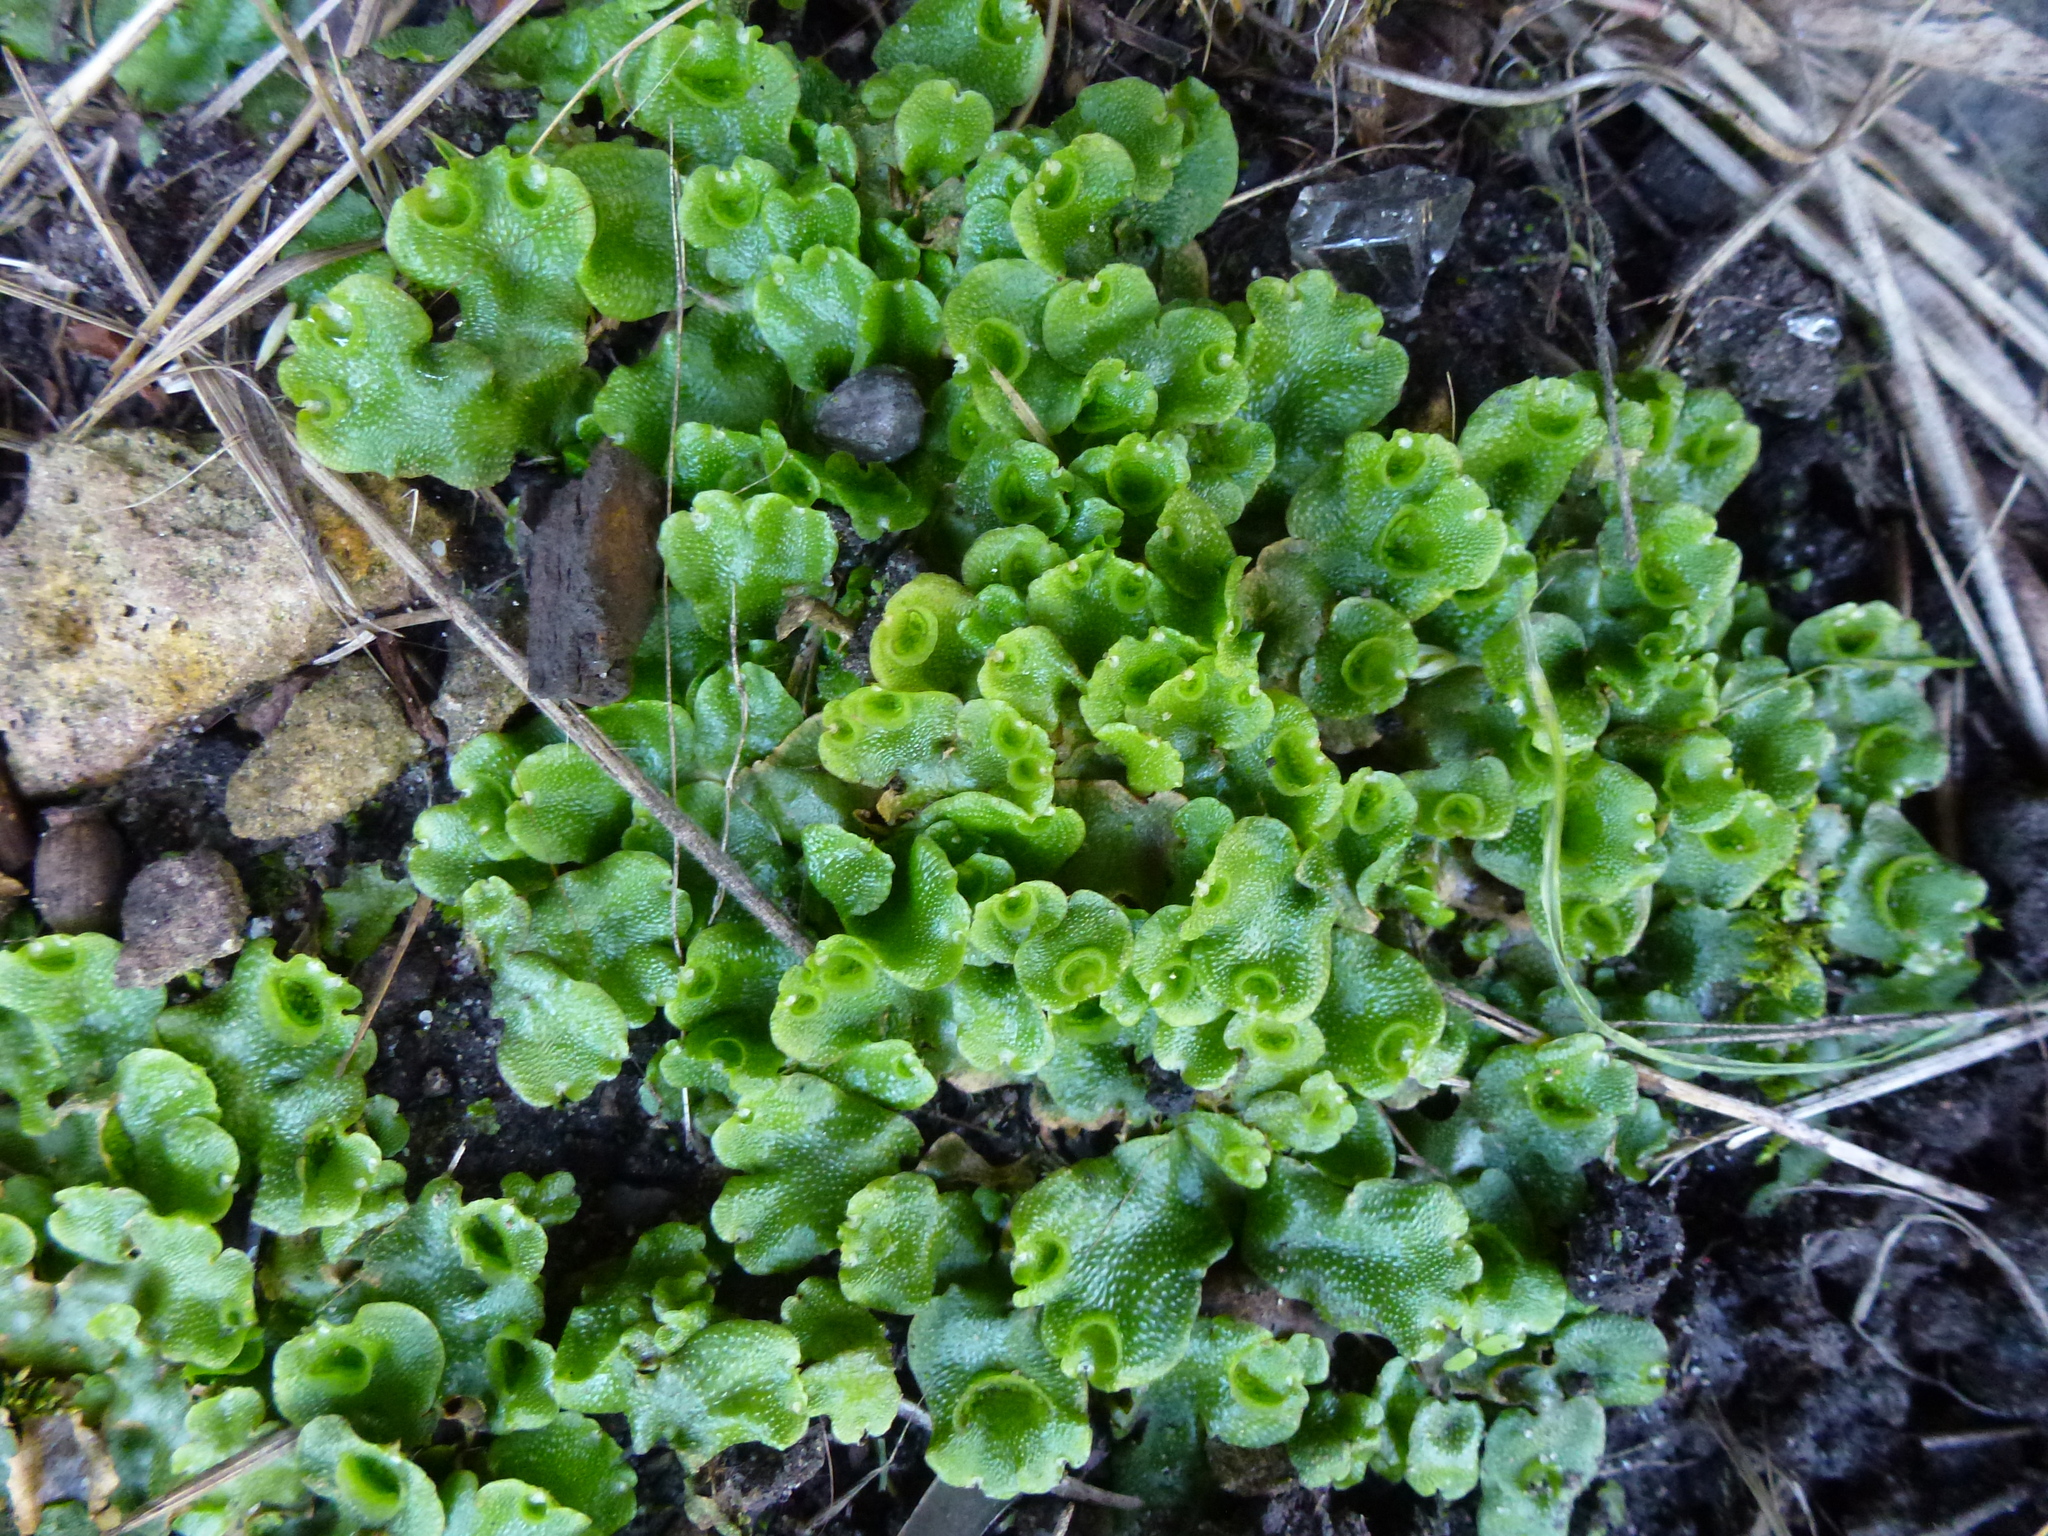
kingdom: Plantae
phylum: Marchantiophyta
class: Marchantiopsida
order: Lunulariales
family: Lunulariaceae
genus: Lunularia
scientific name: Lunularia cruciata
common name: Crescent-cup liverwort
